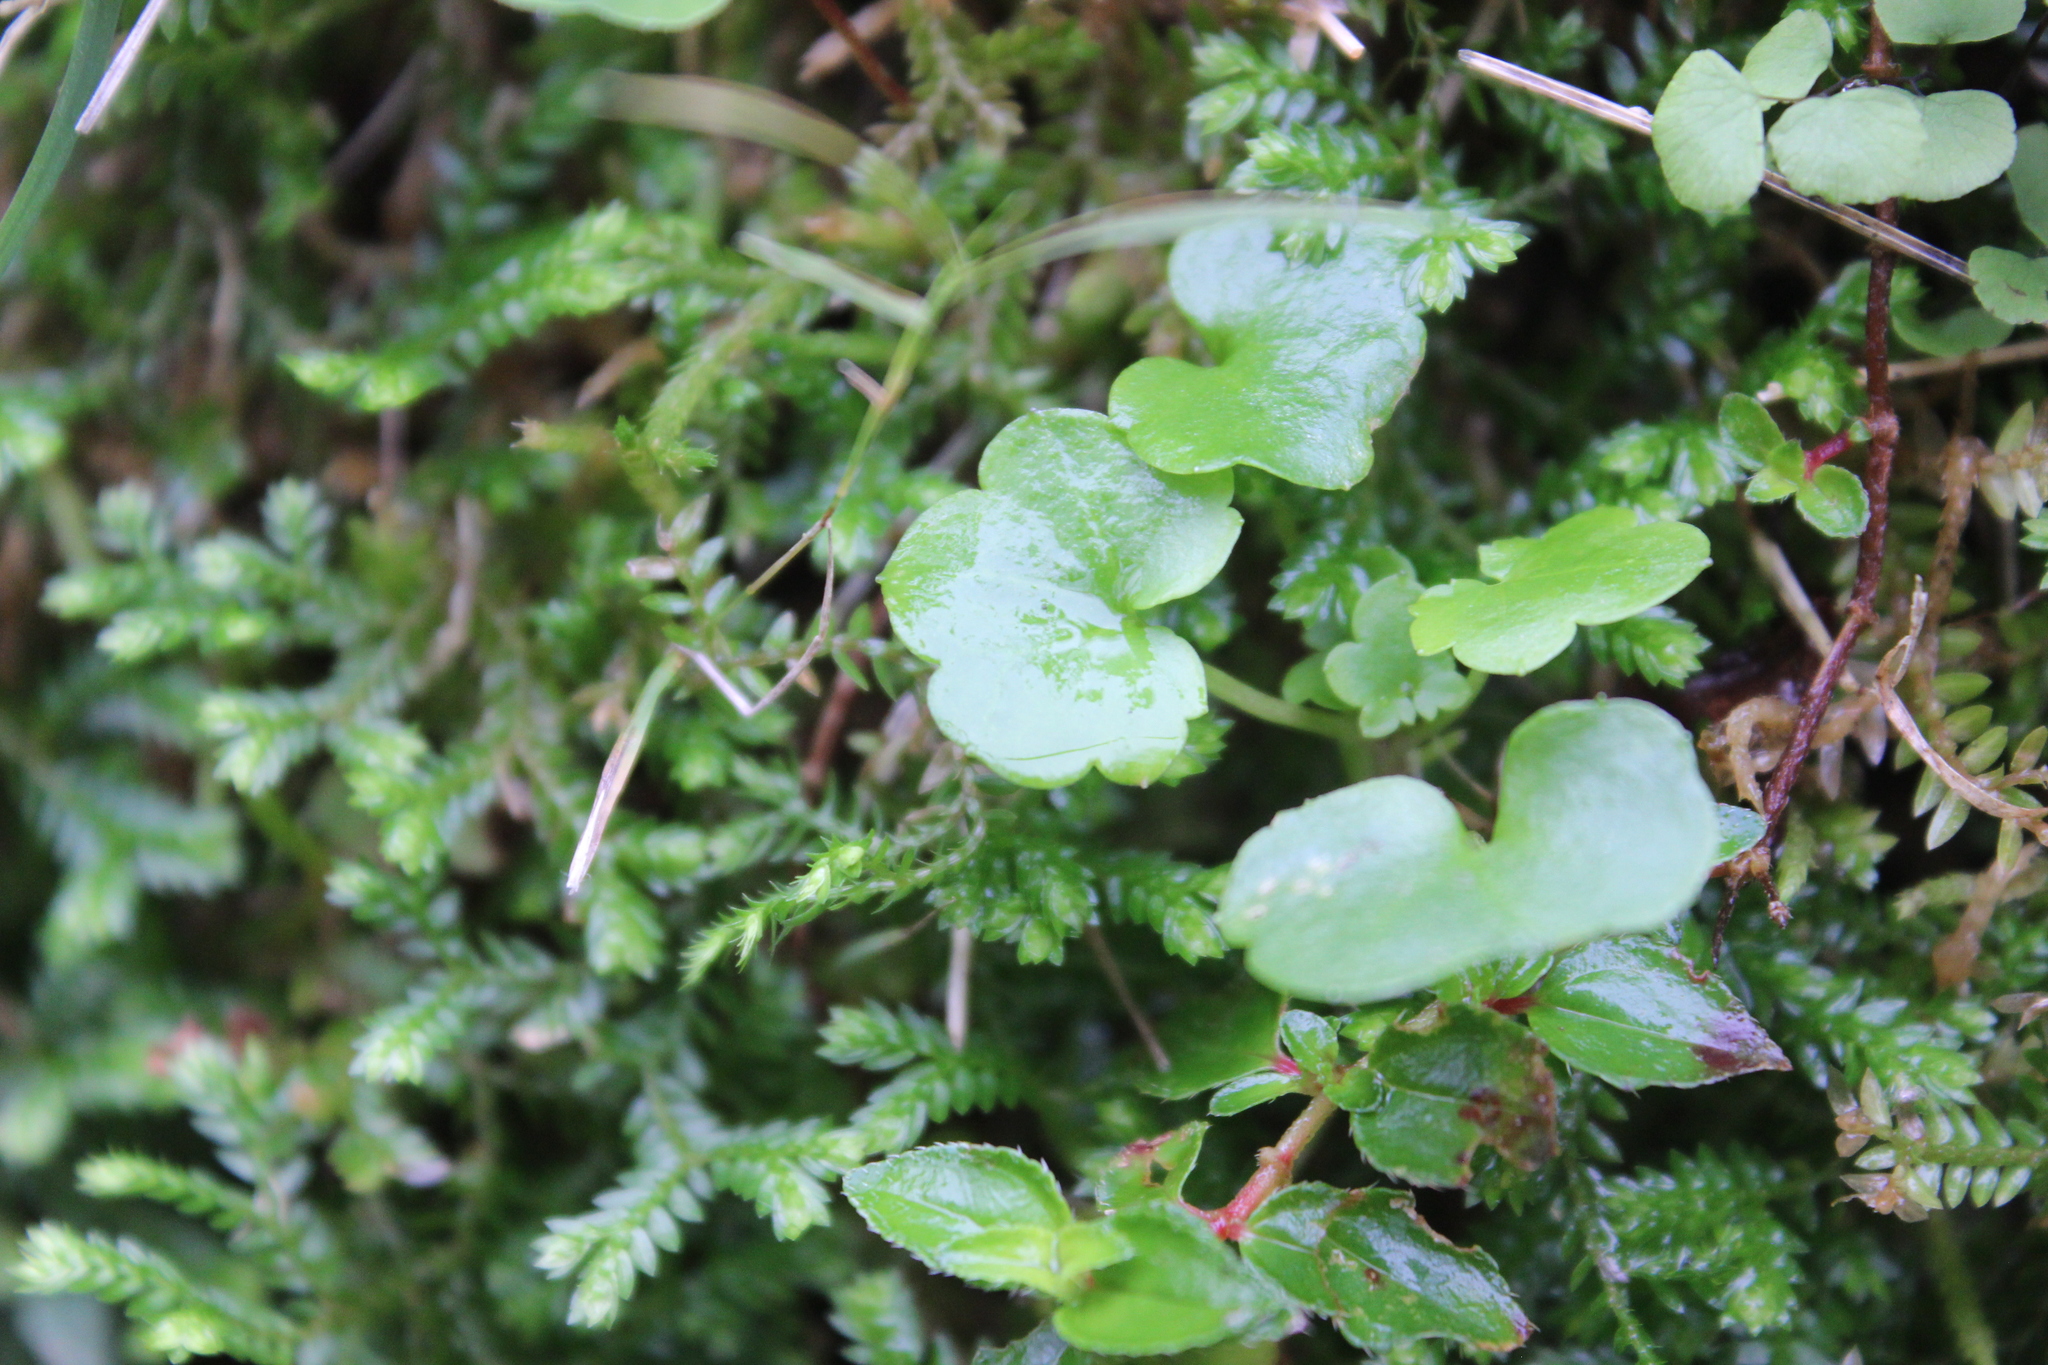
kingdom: Plantae
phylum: Tracheophyta
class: Magnoliopsida
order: Lamiales
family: Plantaginaceae
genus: Cymbalaria
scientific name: Cymbalaria muralis
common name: Ivy-leaved toadflax
